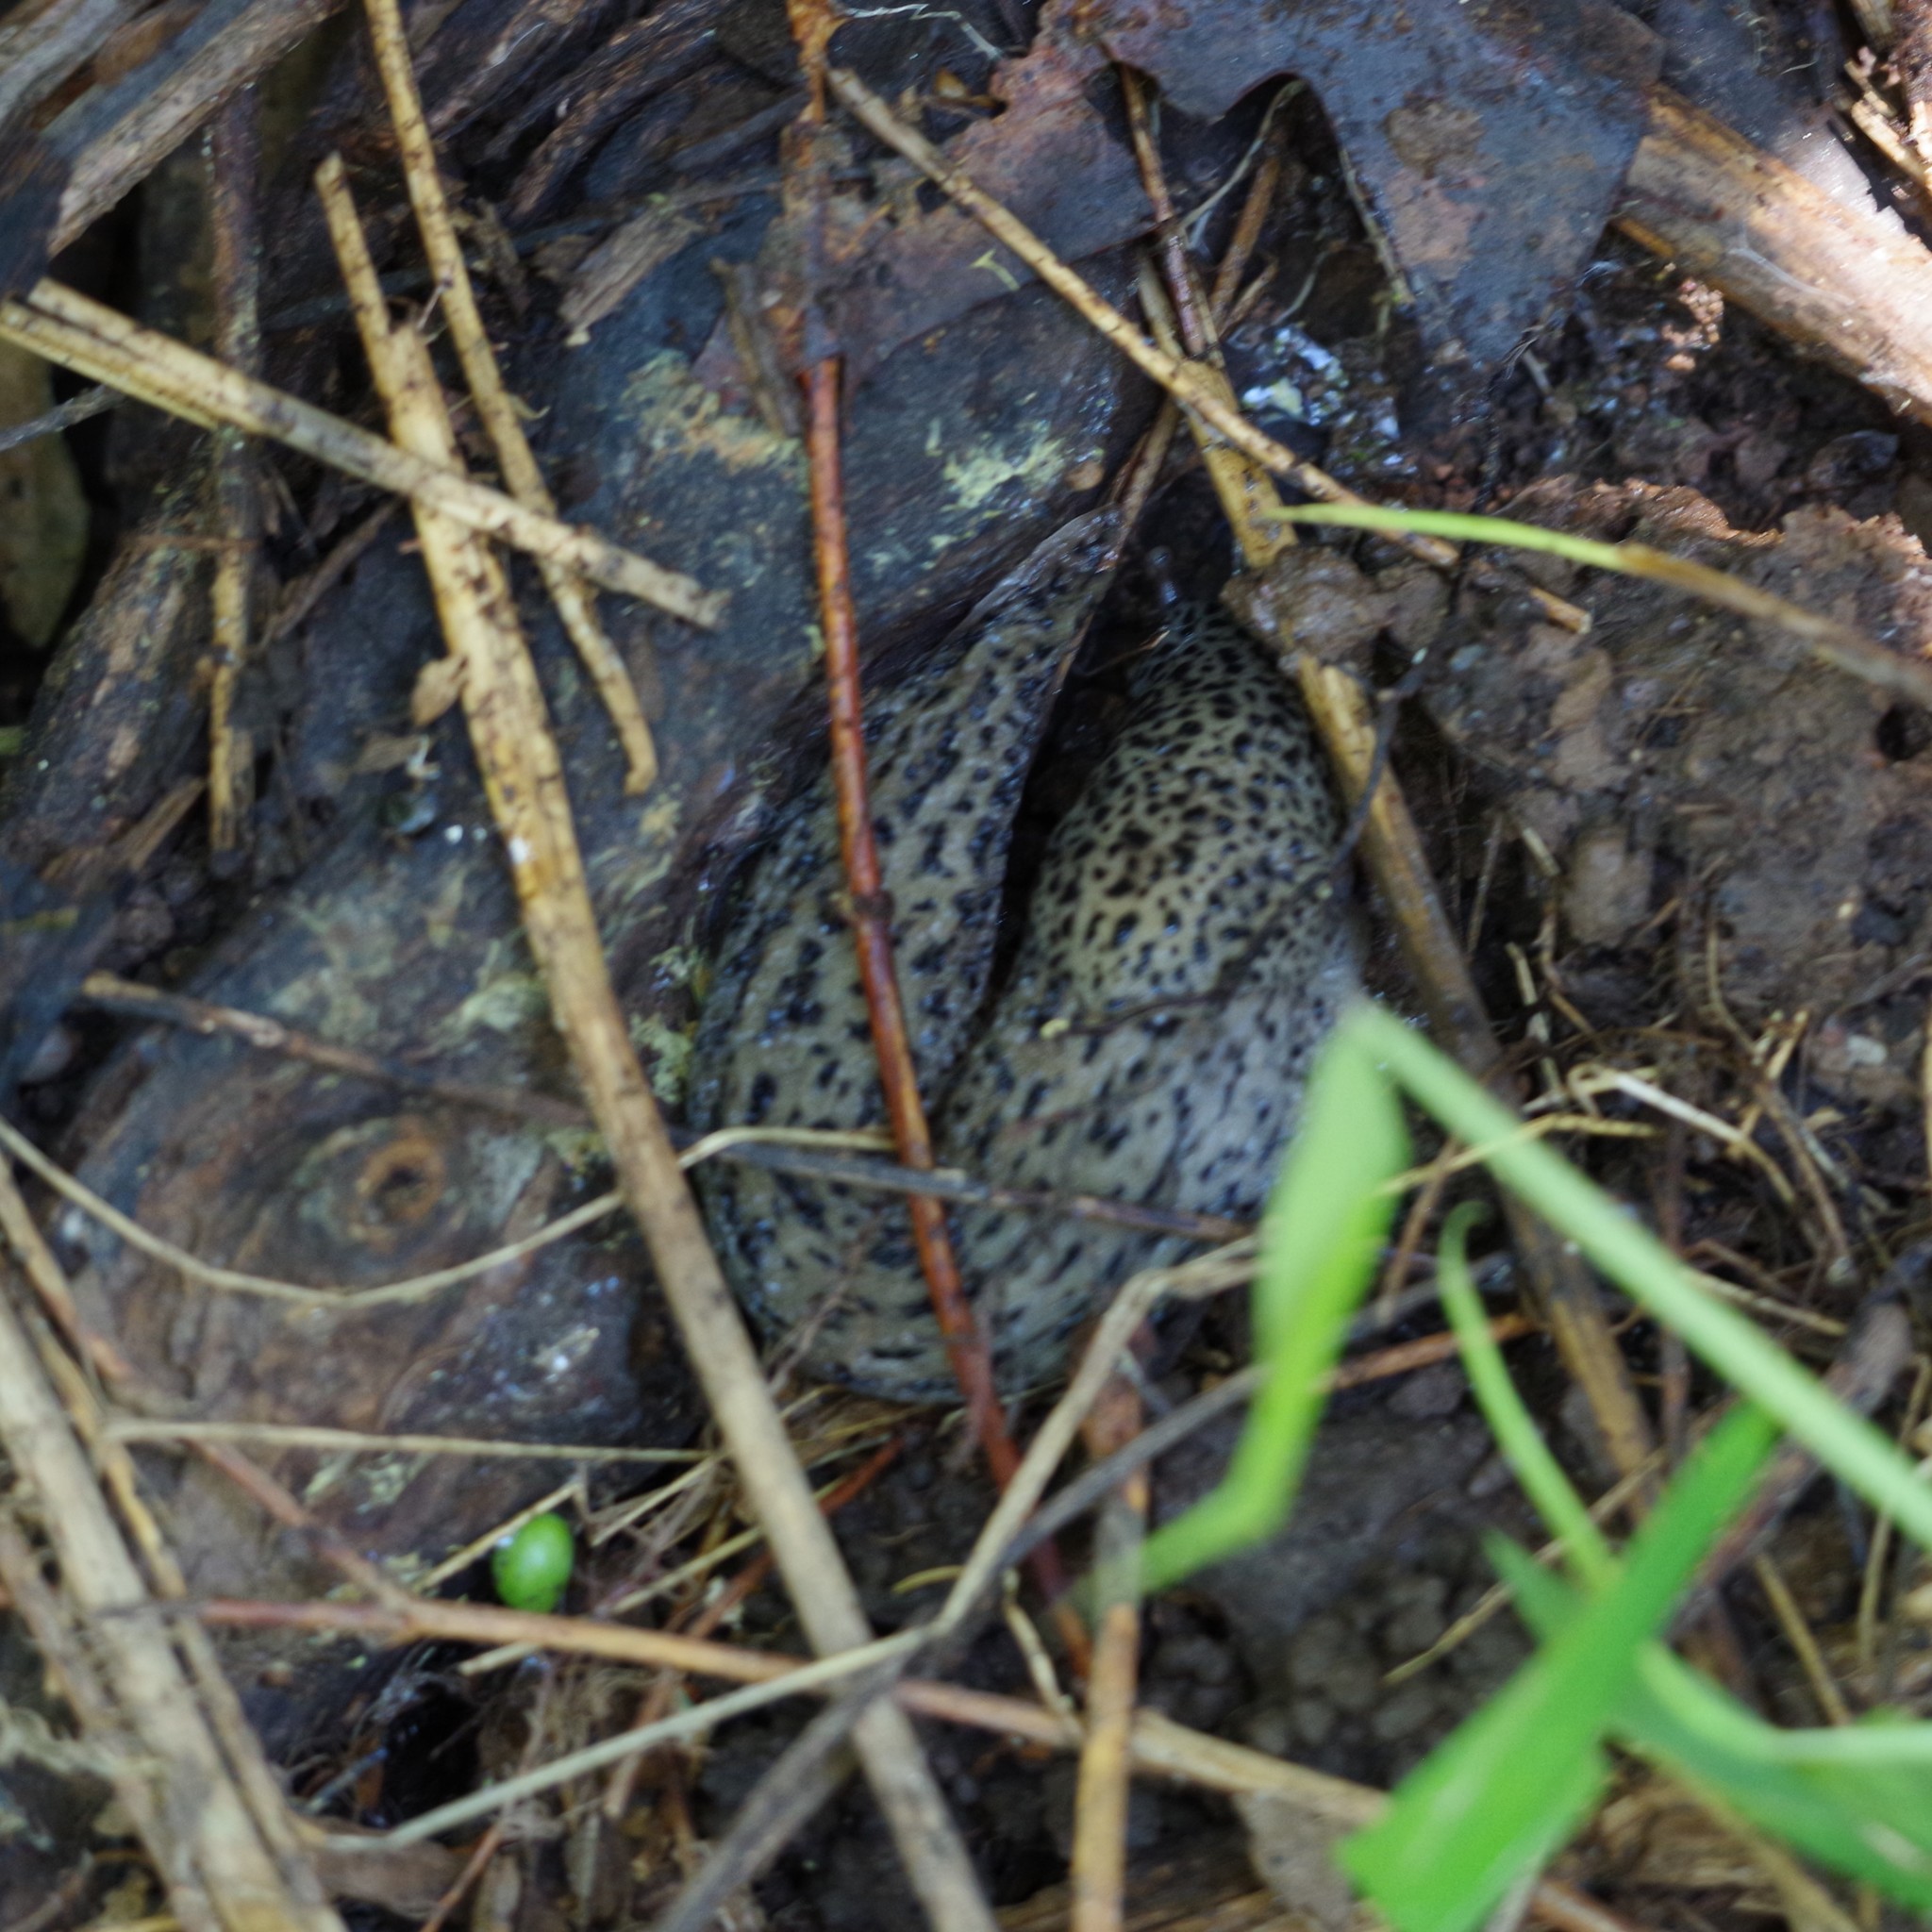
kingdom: Animalia
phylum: Mollusca
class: Gastropoda
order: Stylommatophora
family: Limacidae
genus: Limax
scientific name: Limax maximus
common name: Great grey slug
